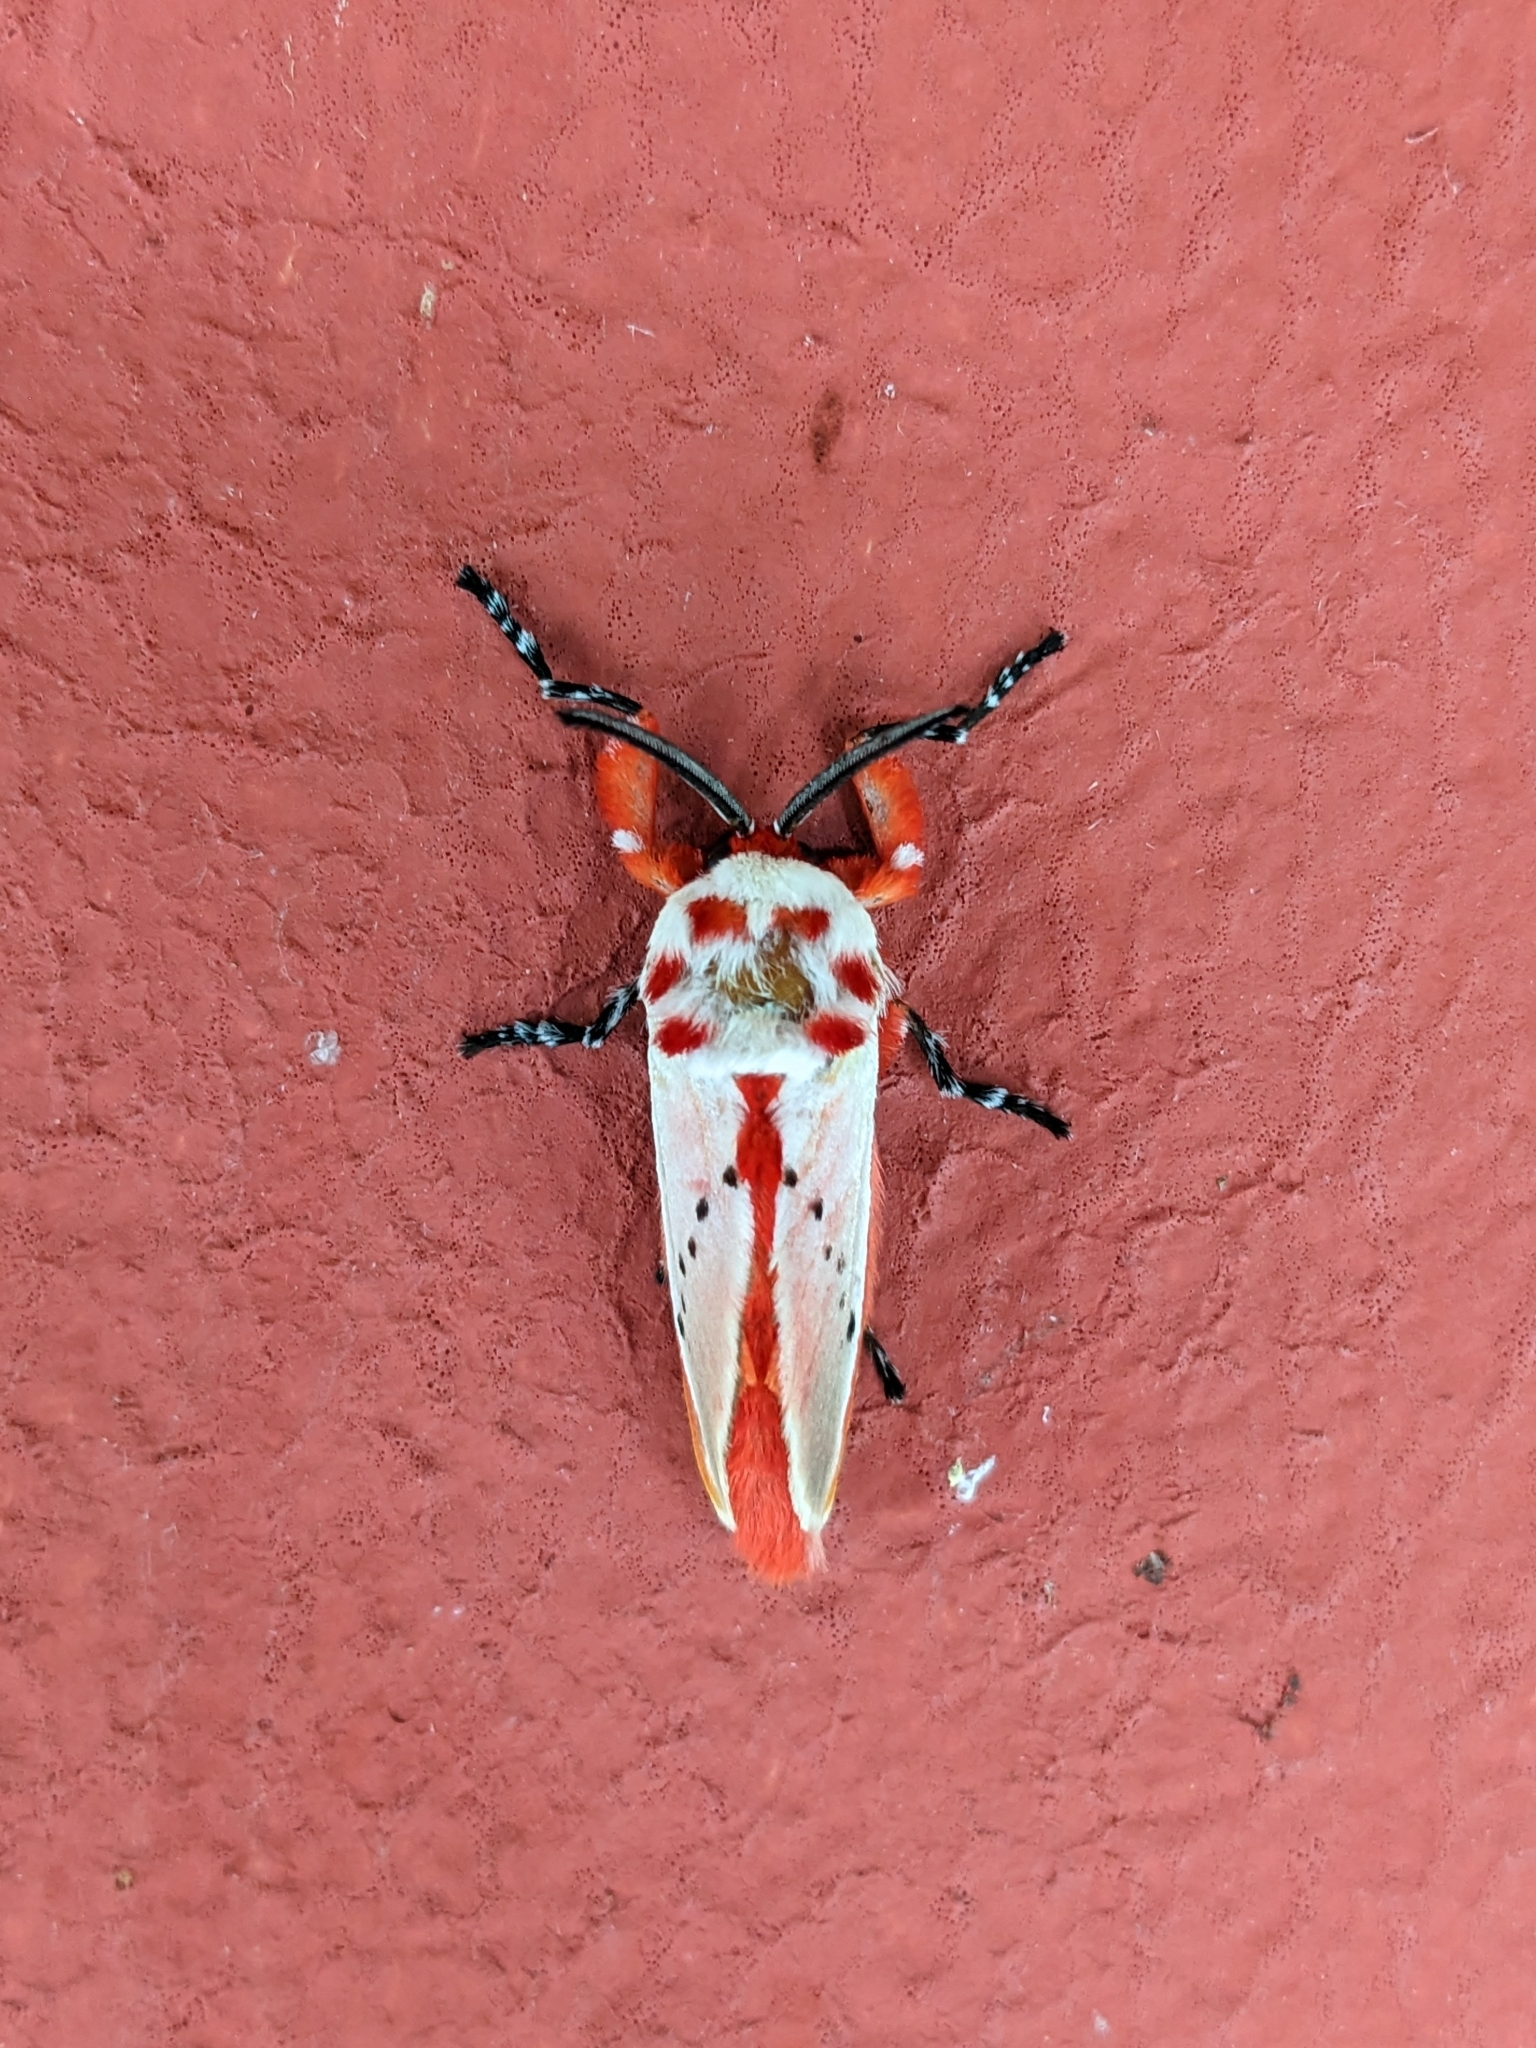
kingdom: Animalia
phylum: Arthropoda
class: Insecta
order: Lepidoptera
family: Megalopygidae
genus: Trosia
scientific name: Trosia semirufa
